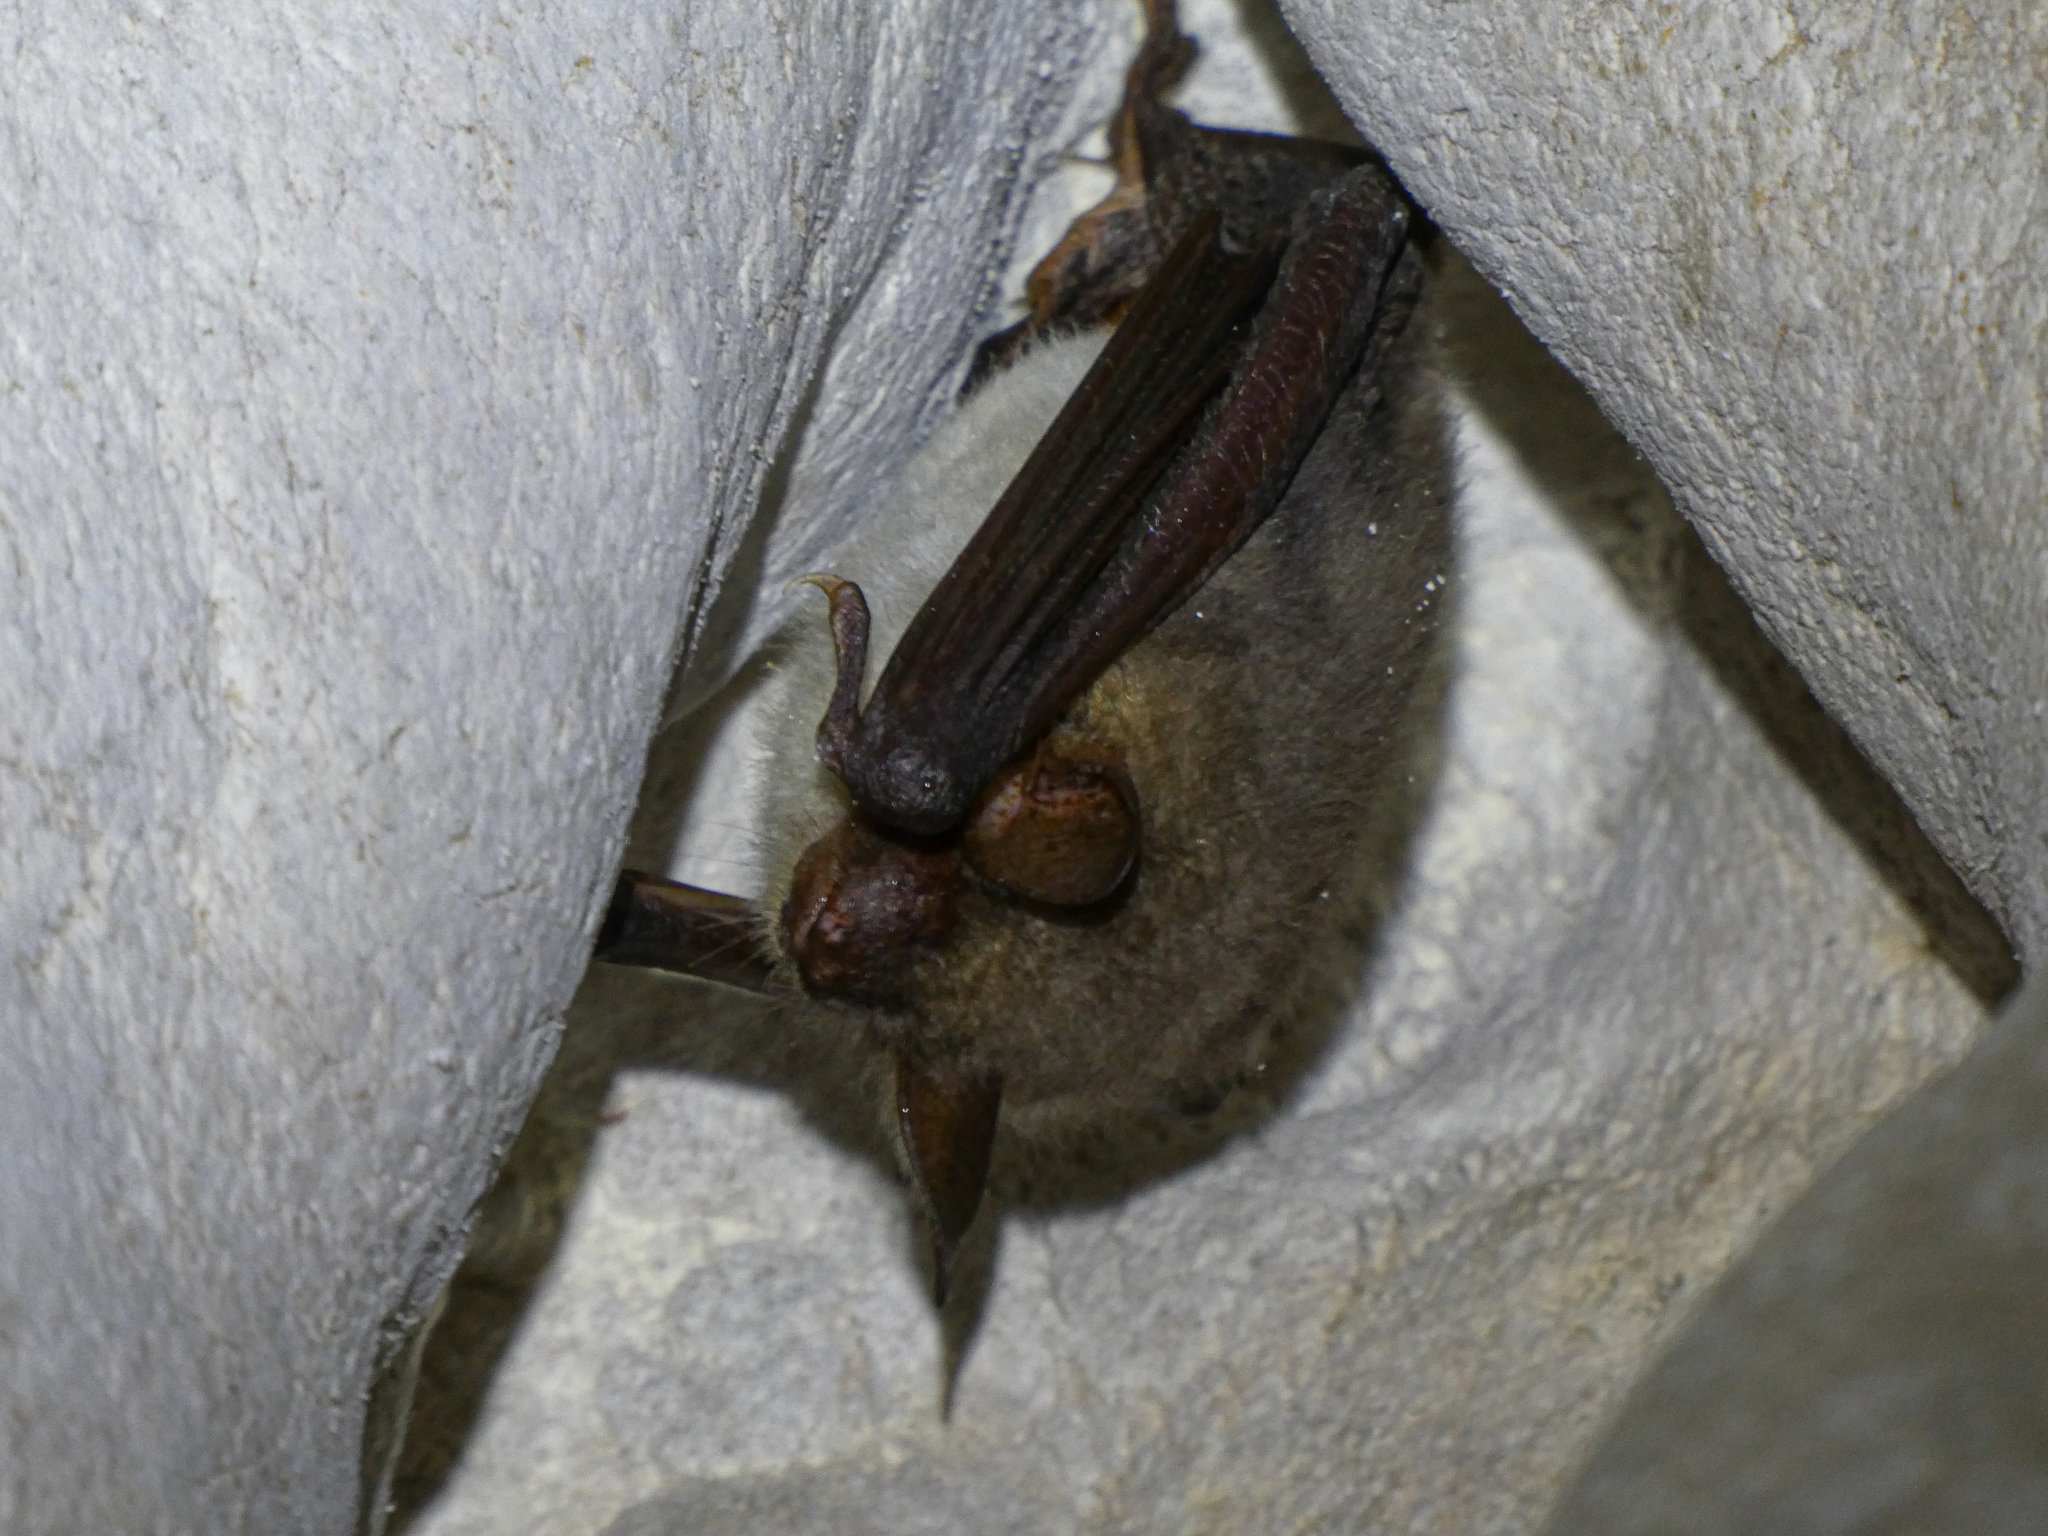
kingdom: Animalia
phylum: Chordata
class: Mammalia
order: Chiroptera
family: Vespertilionidae
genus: Myotis
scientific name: Myotis
